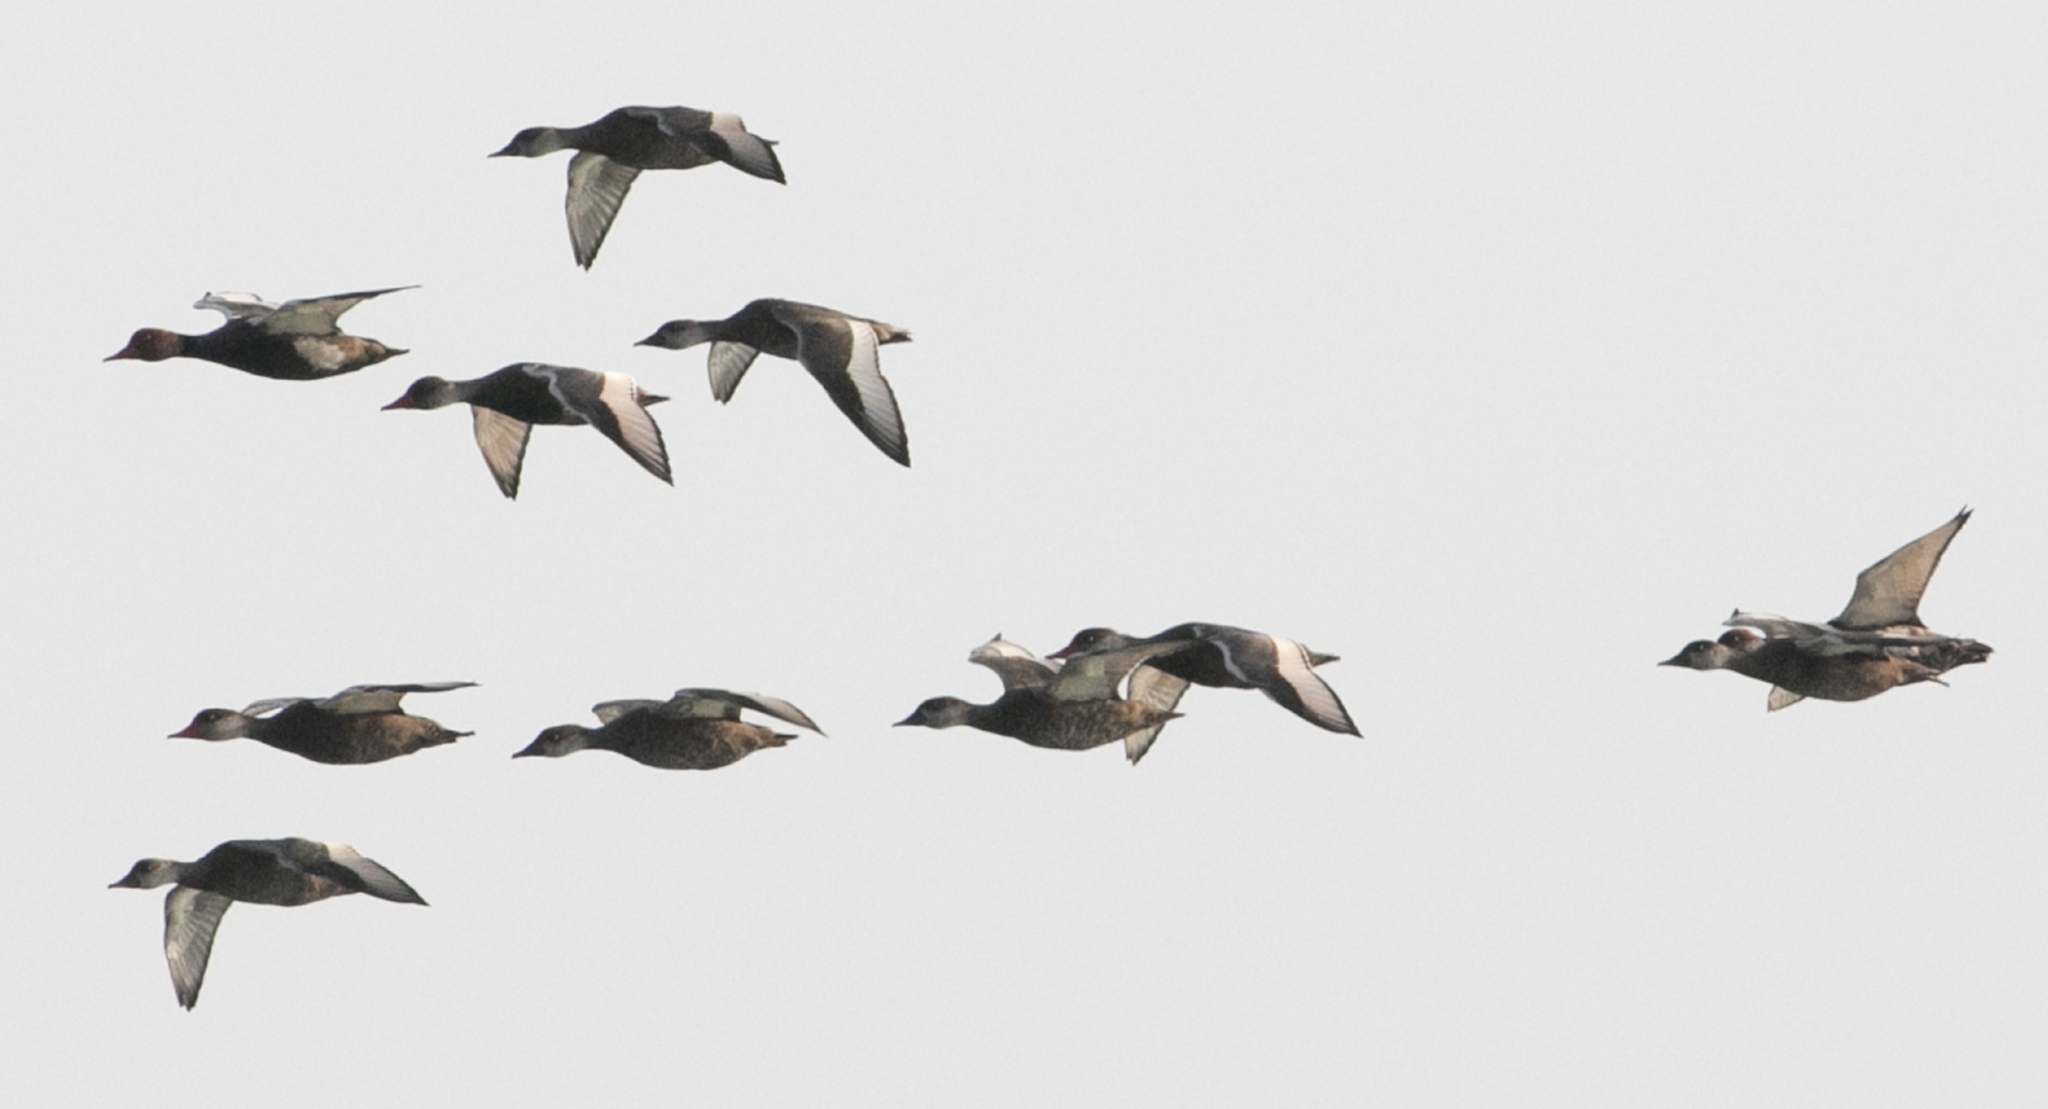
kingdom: Animalia
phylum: Chordata
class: Aves
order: Anseriformes
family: Anatidae
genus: Netta
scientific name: Netta rufina
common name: Red-crested pochard
